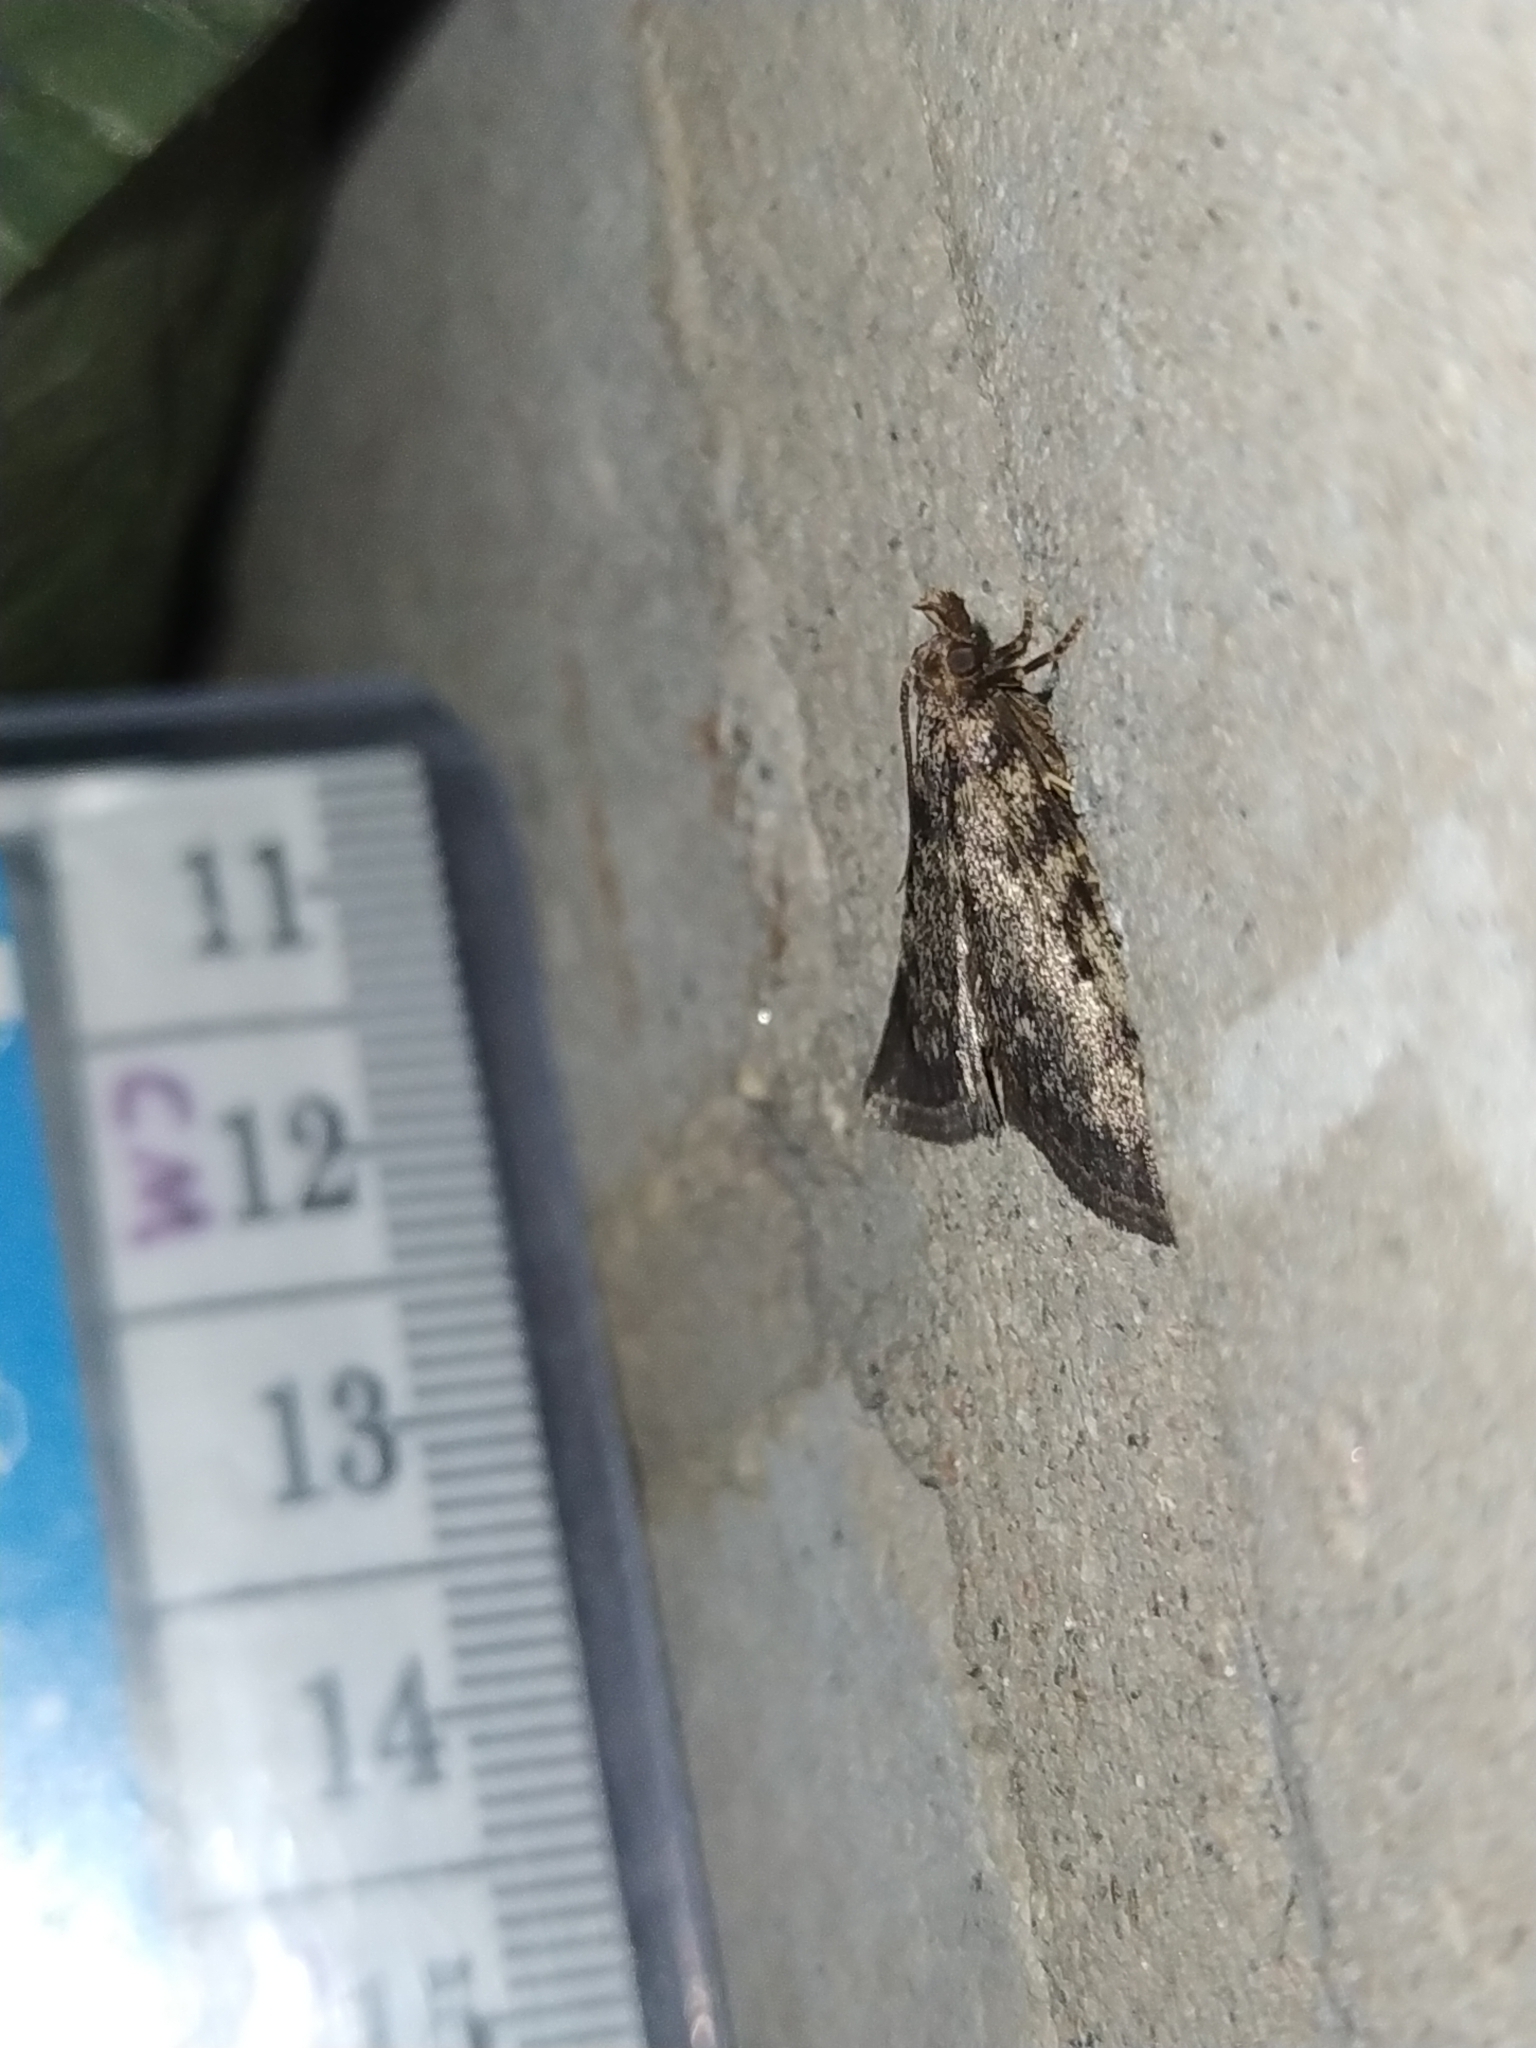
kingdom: Animalia
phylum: Arthropoda
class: Insecta
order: Lepidoptera
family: Pyralidae
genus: Aglossa
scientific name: Aglossa pinguinalis
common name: Large tabby
